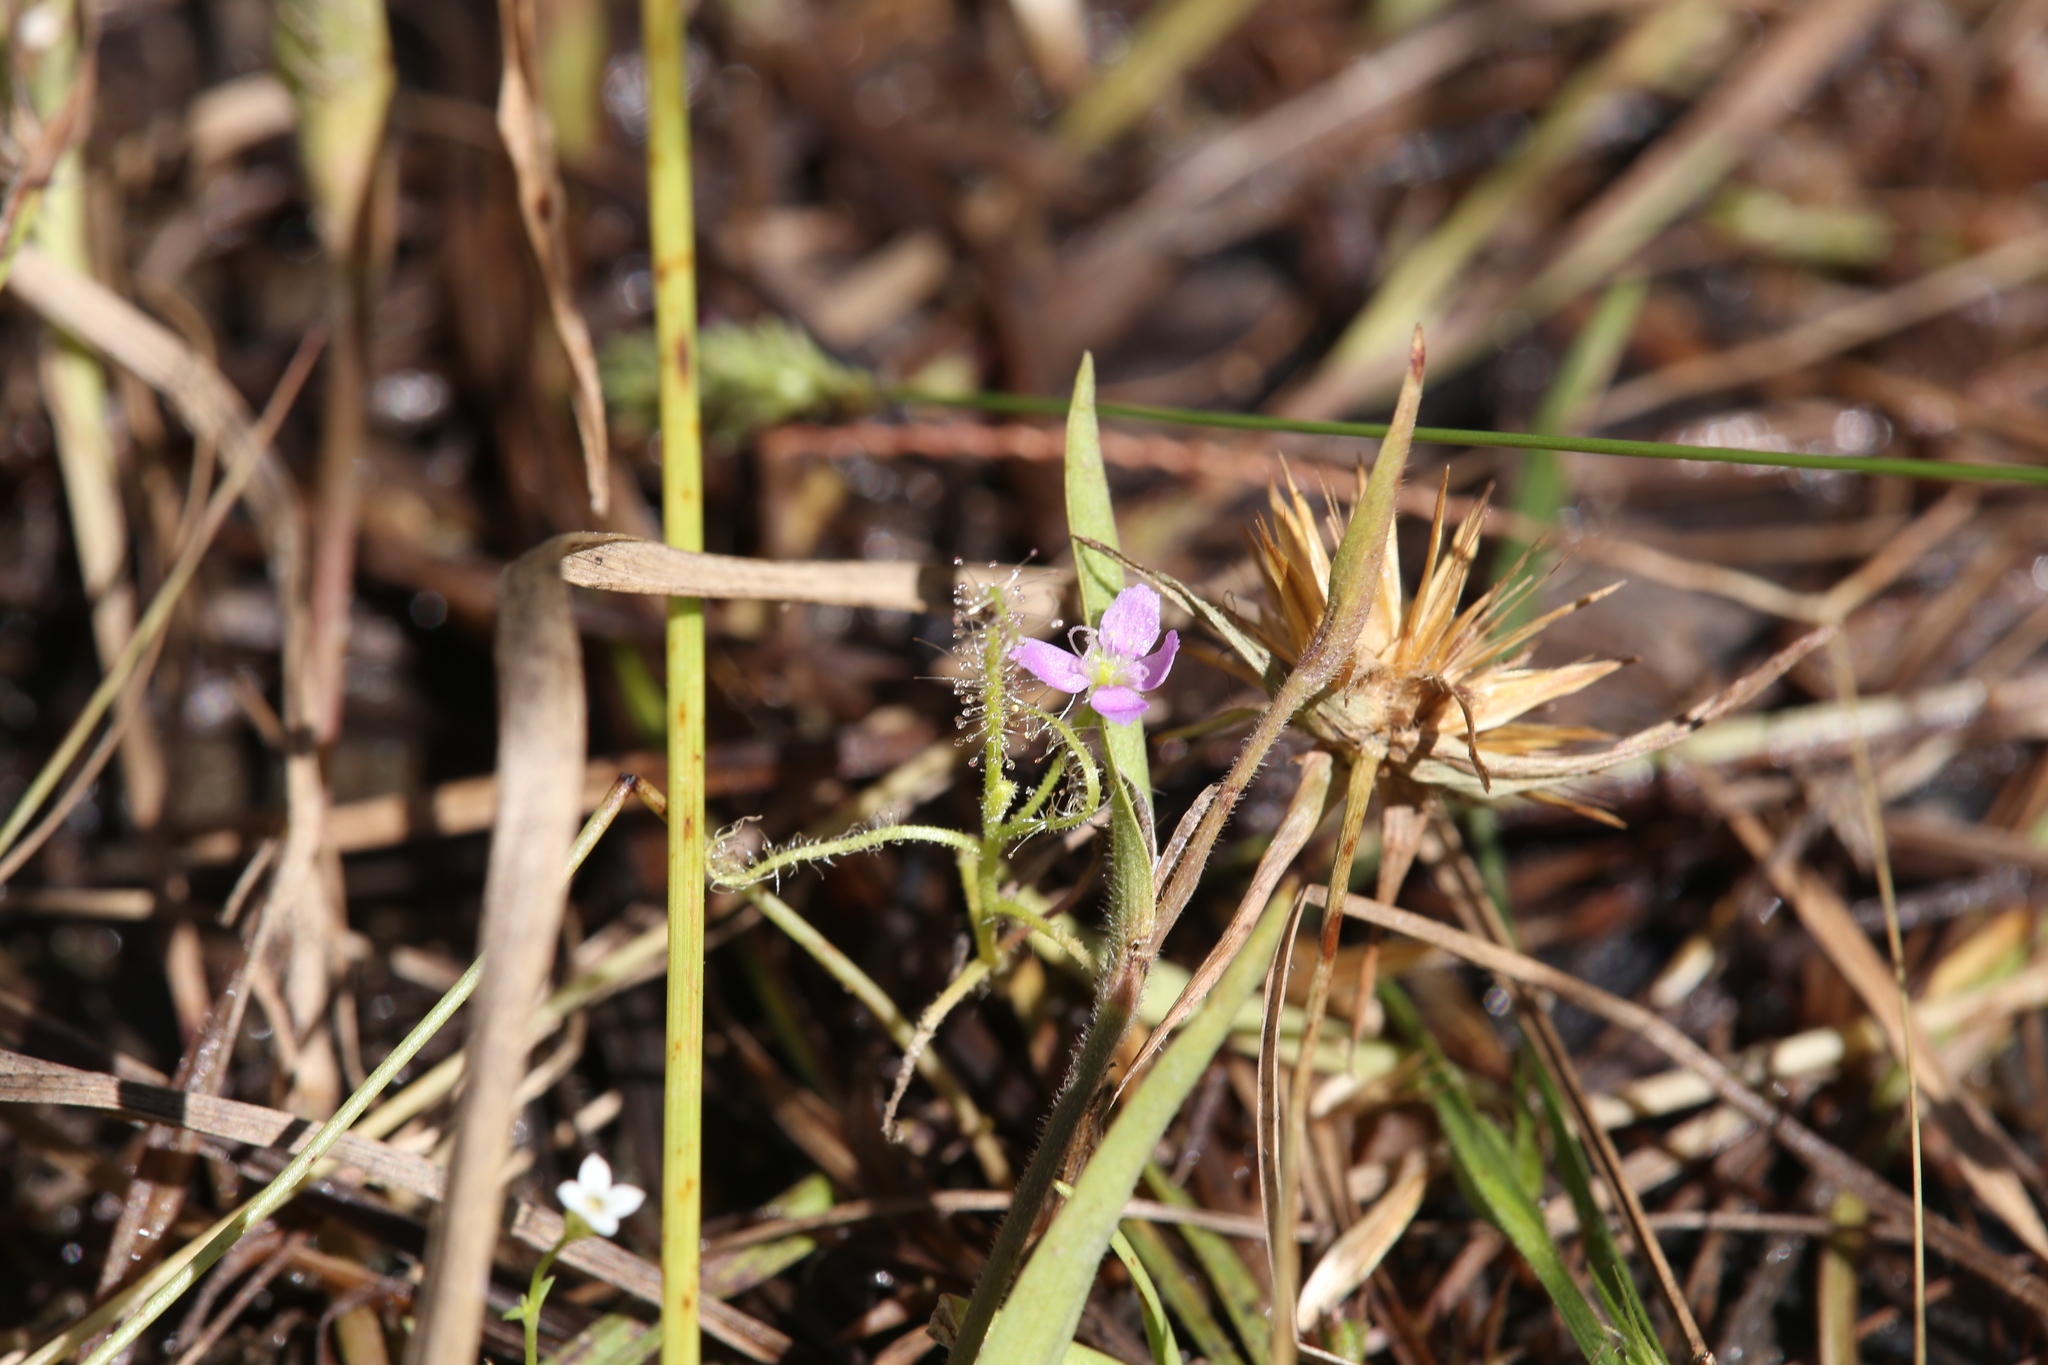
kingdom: Plantae
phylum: Tracheophyta
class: Magnoliopsida
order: Caryophyllales
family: Droseraceae
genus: Drosera
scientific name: Drosera indica
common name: Indian sundew
